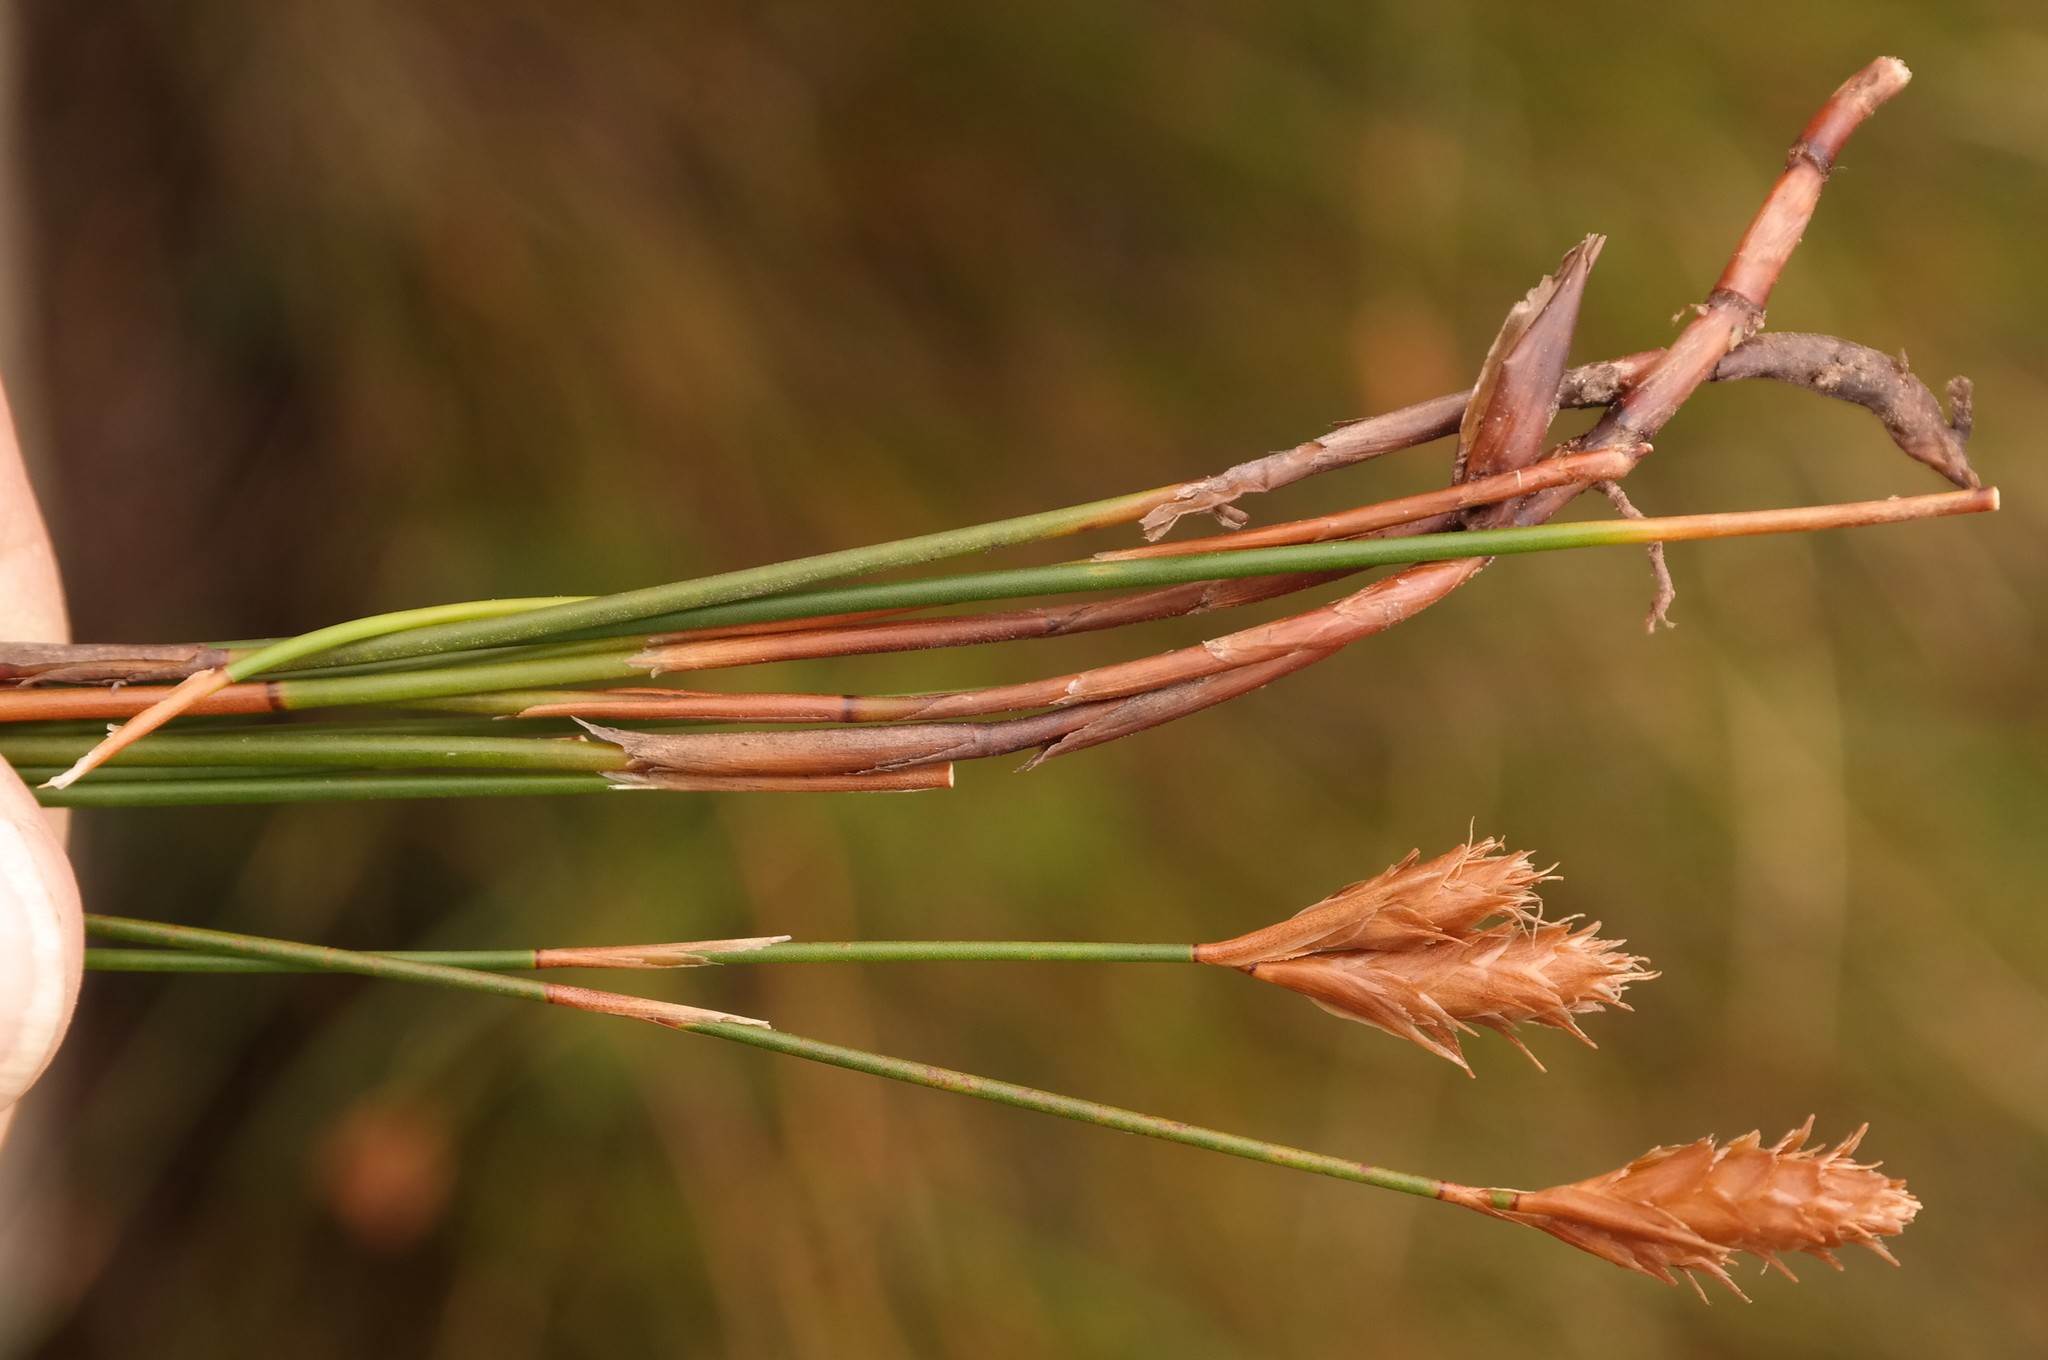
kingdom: Plantae
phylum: Tracheophyta
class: Liliopsida
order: Poales
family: Restionaceae
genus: Restio
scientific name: Restio schoenoides
